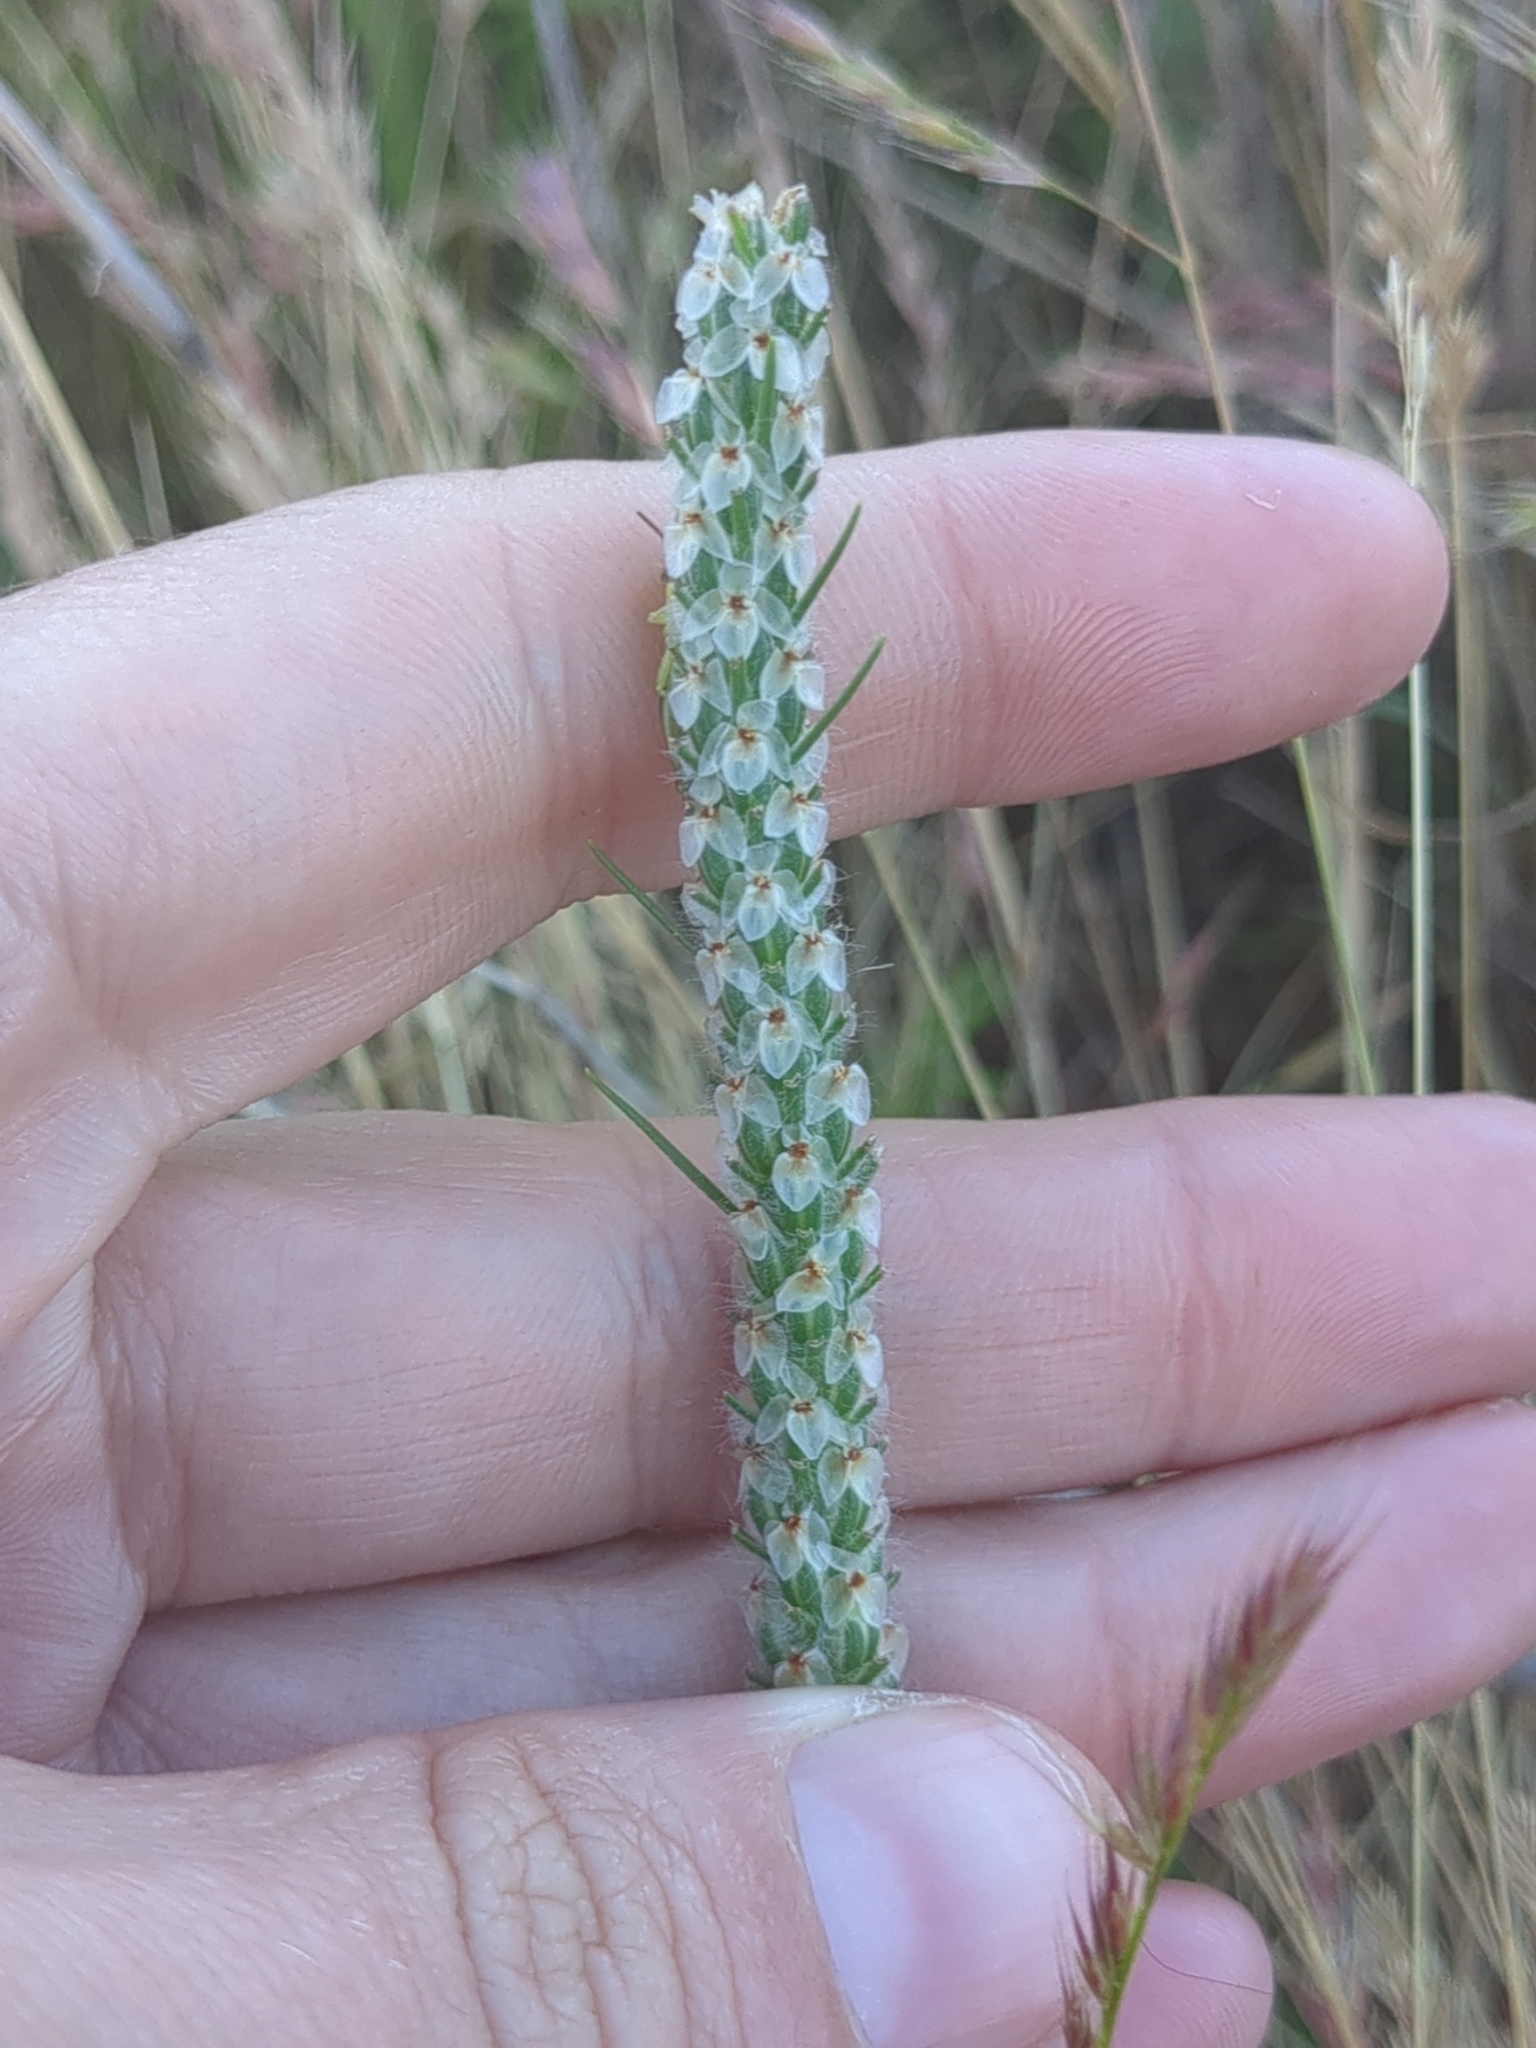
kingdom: Plantae
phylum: Tracheophyta
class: Magnoliopsida
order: Lamiales
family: Plantaginaceae
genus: Plantago
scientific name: Plantago aristata
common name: Bracted plantain
